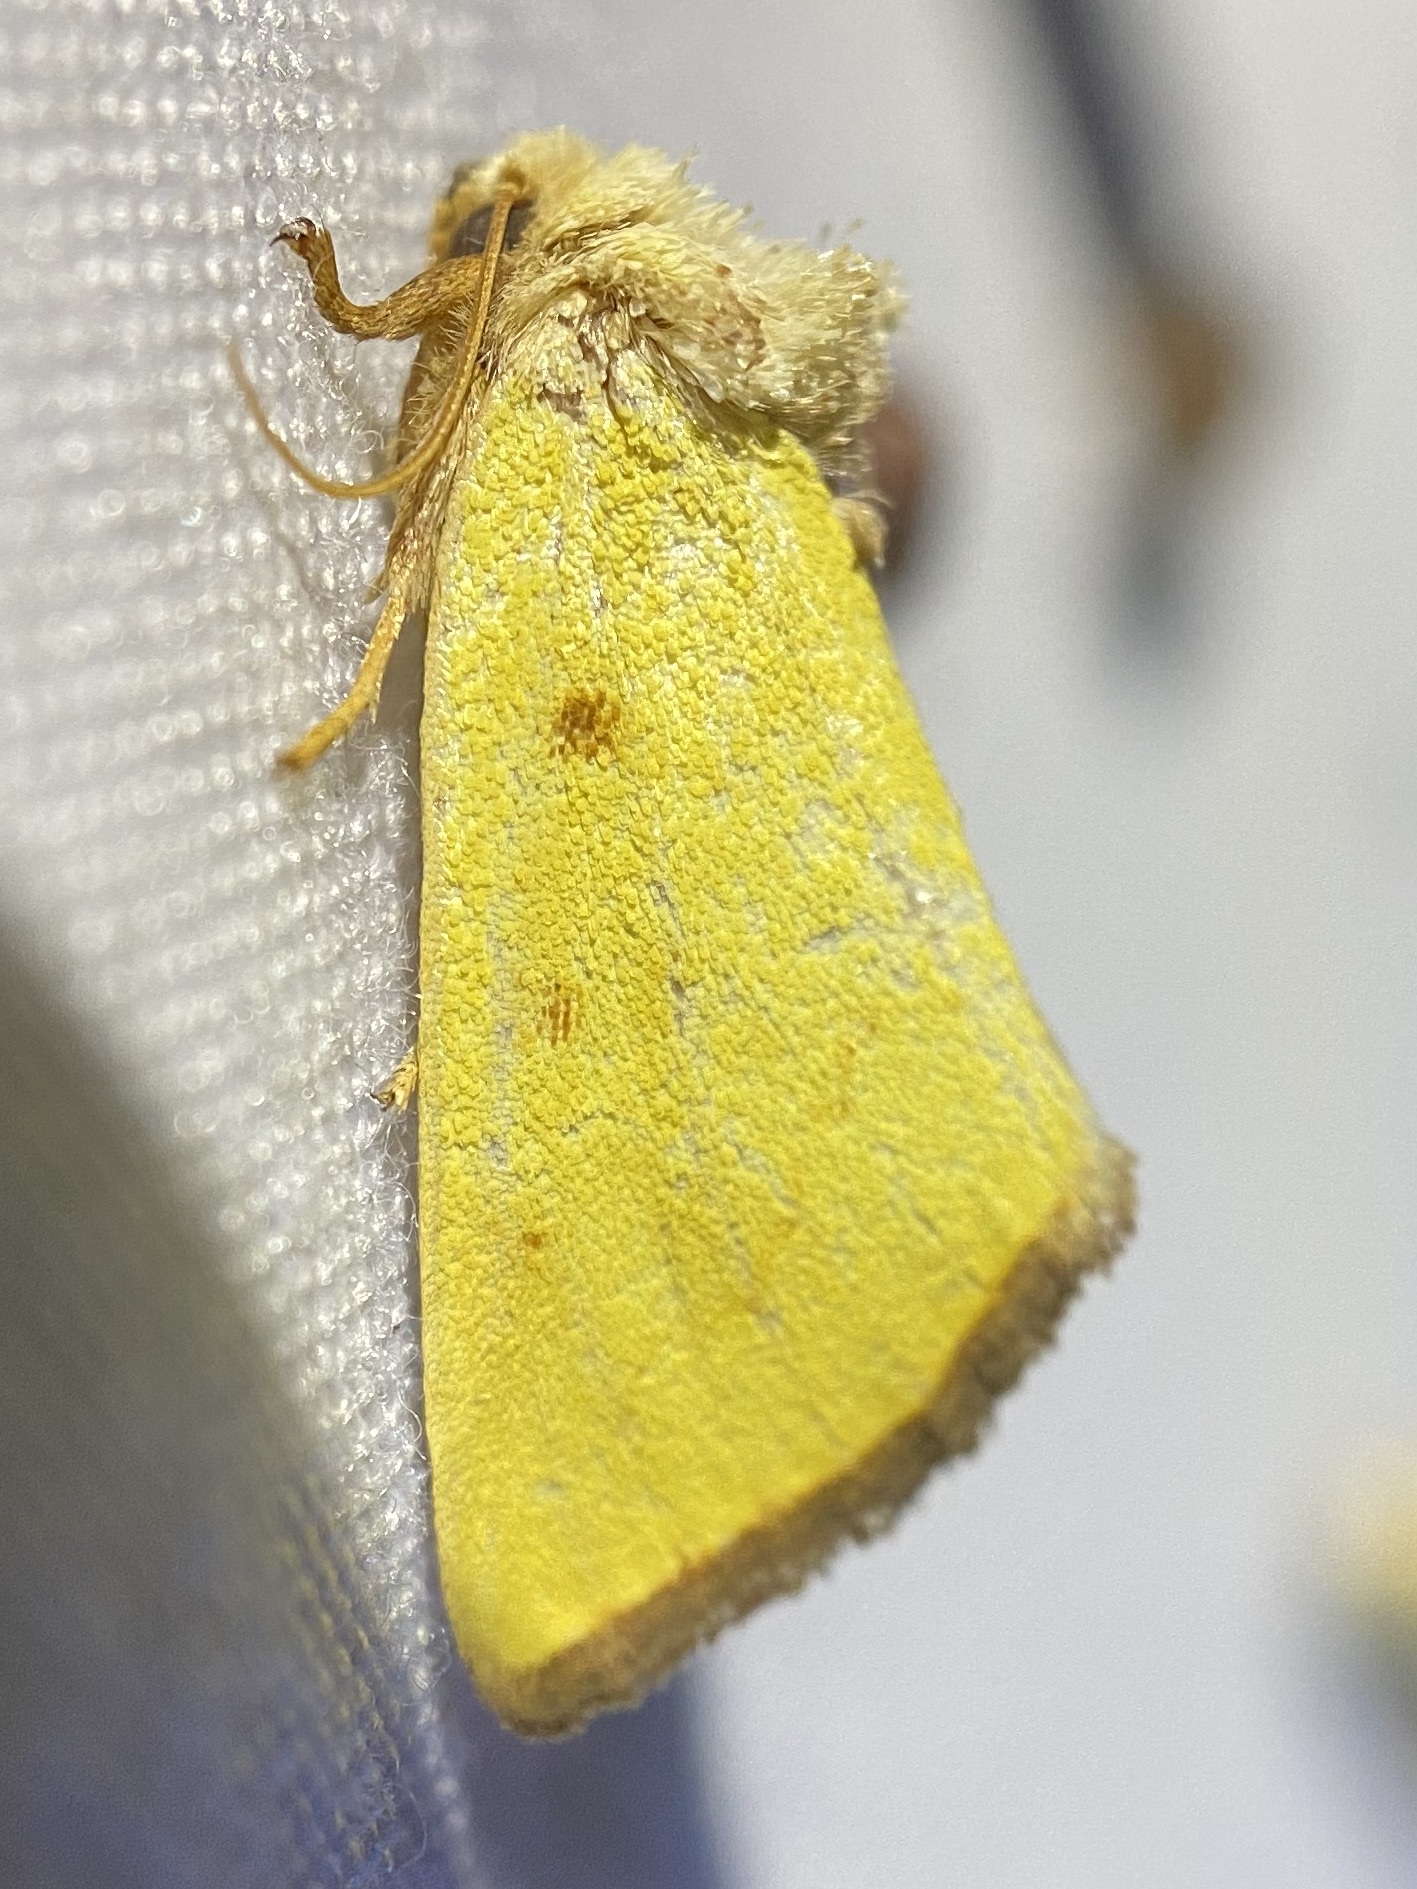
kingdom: Animalia
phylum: Arthropoda
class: Insecta
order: Lepidoptera
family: Noctuidae
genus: Nocloa
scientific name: Nocloa aliaga
